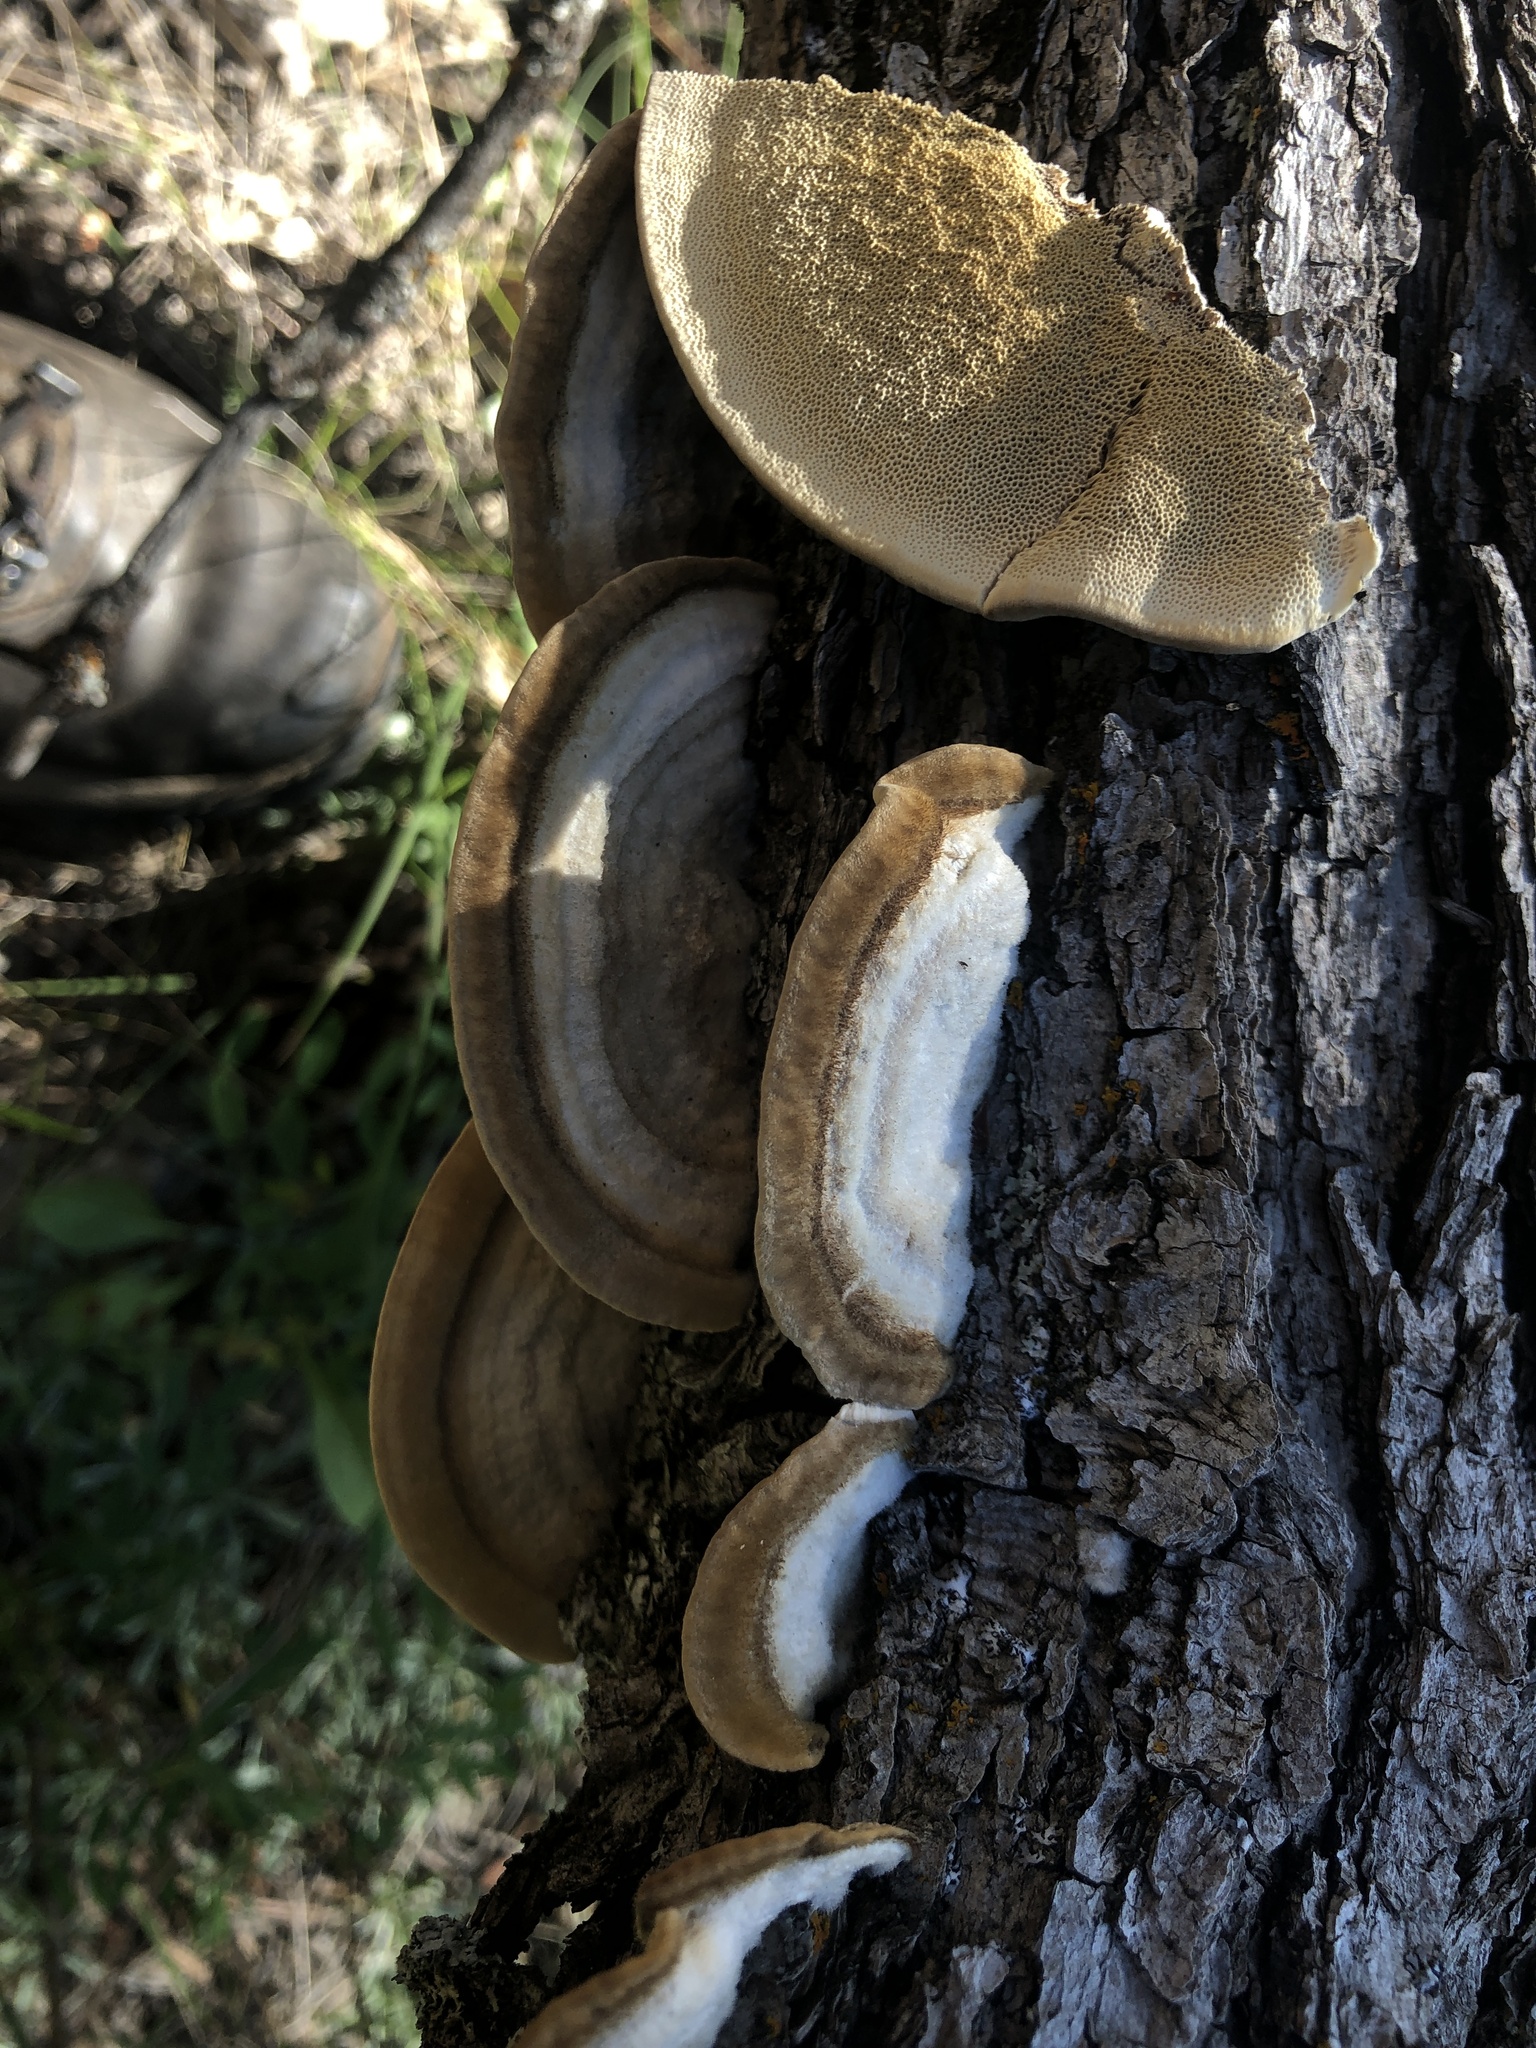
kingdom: Fungi
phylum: Basidiomycota
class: Agaricomycetes
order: Polyporales
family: Polyporaceae
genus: Trametes
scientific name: Trametes hirsuta
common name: Hairy bracket
